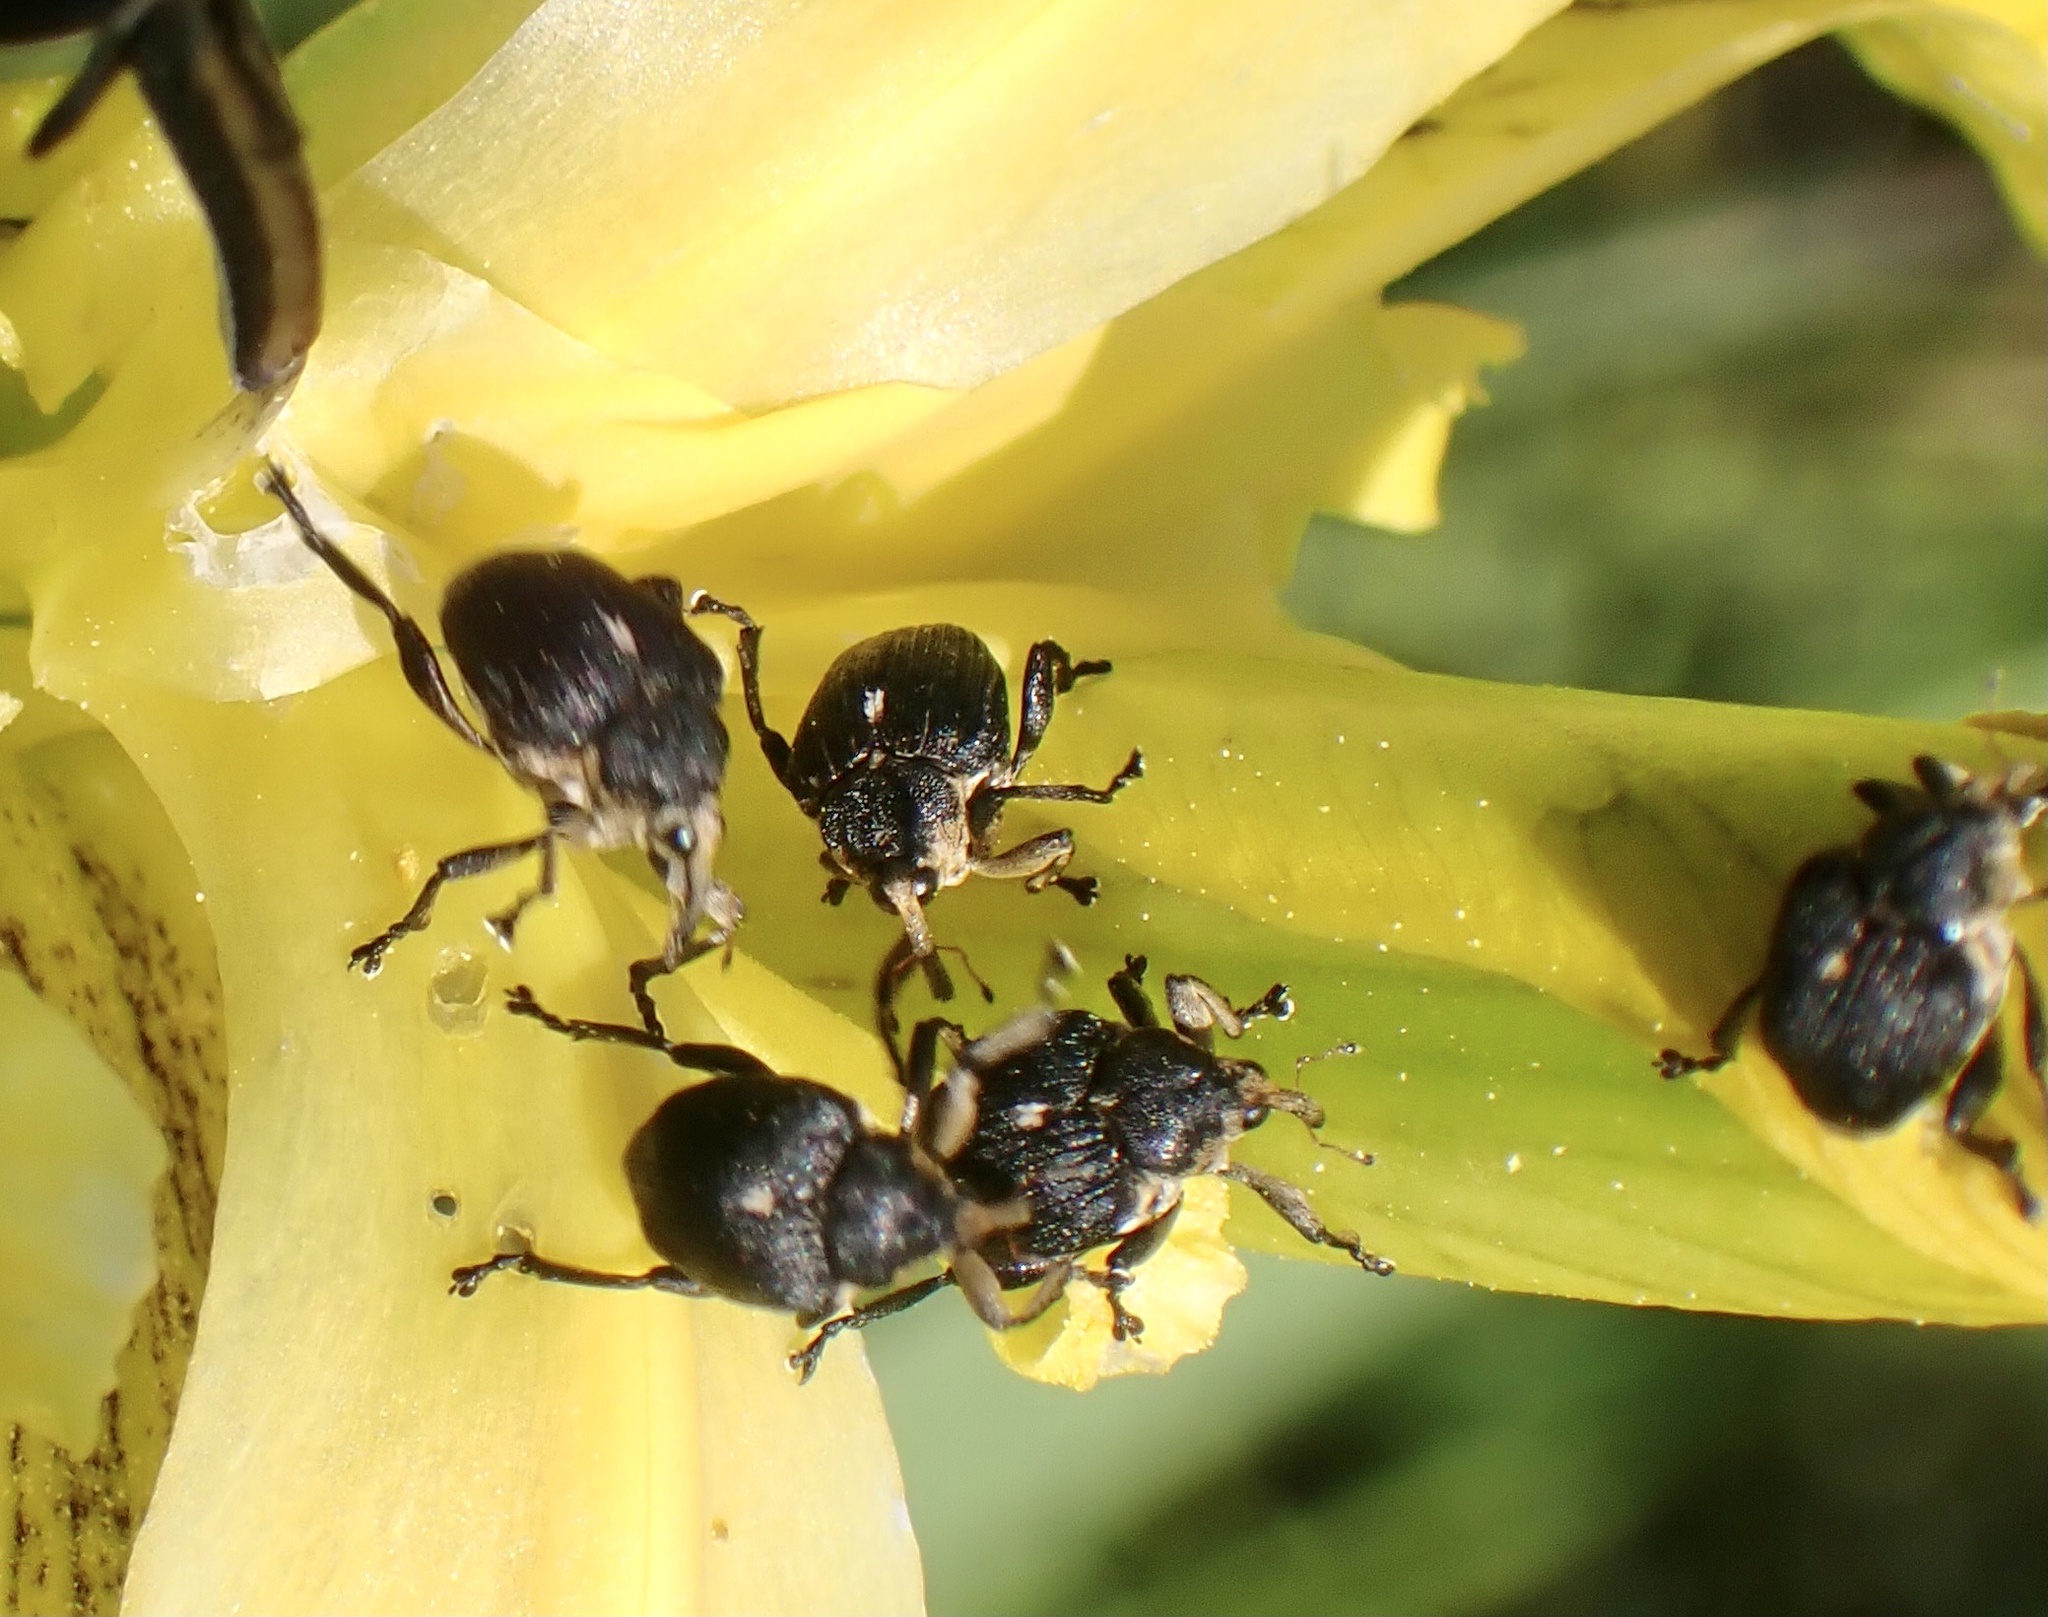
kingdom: Animalia
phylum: Arthropoda
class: Insecta
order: Coleoptera
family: Curculionidae
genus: Mononychus
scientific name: Mononychus punctumalbum
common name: Iris weevil
